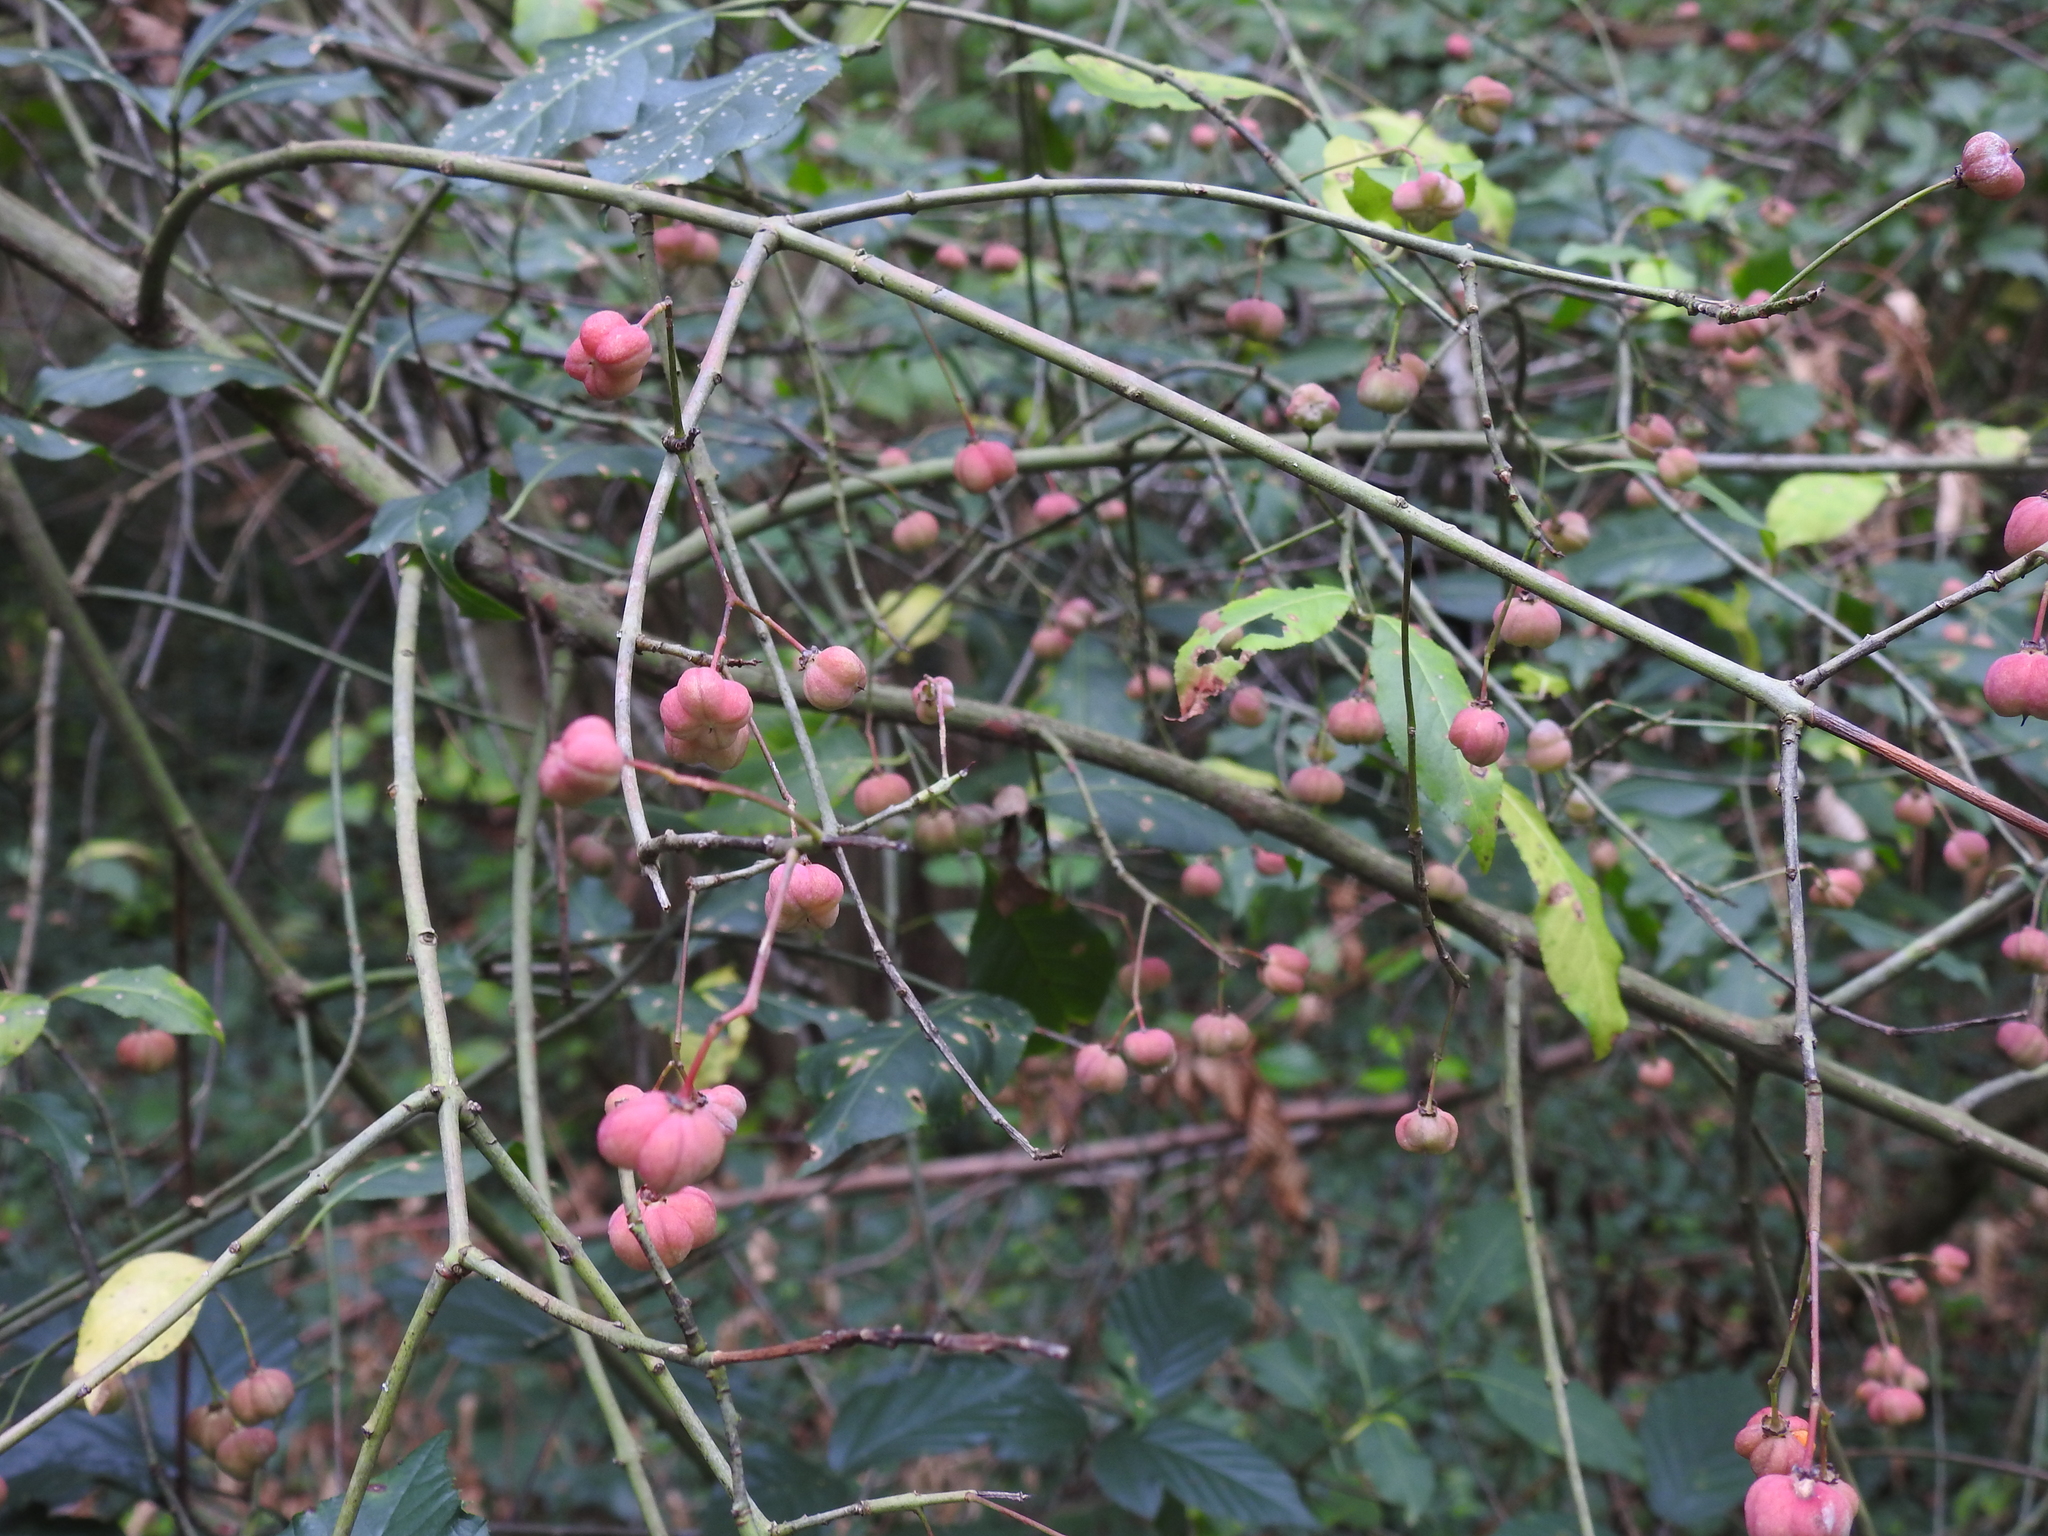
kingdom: Plantae
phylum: Tracheophyta
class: Magnoliopsida
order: Celastrales
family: Celastraceae
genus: Euonymus
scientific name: Euonymus europaeus
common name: Spindle
